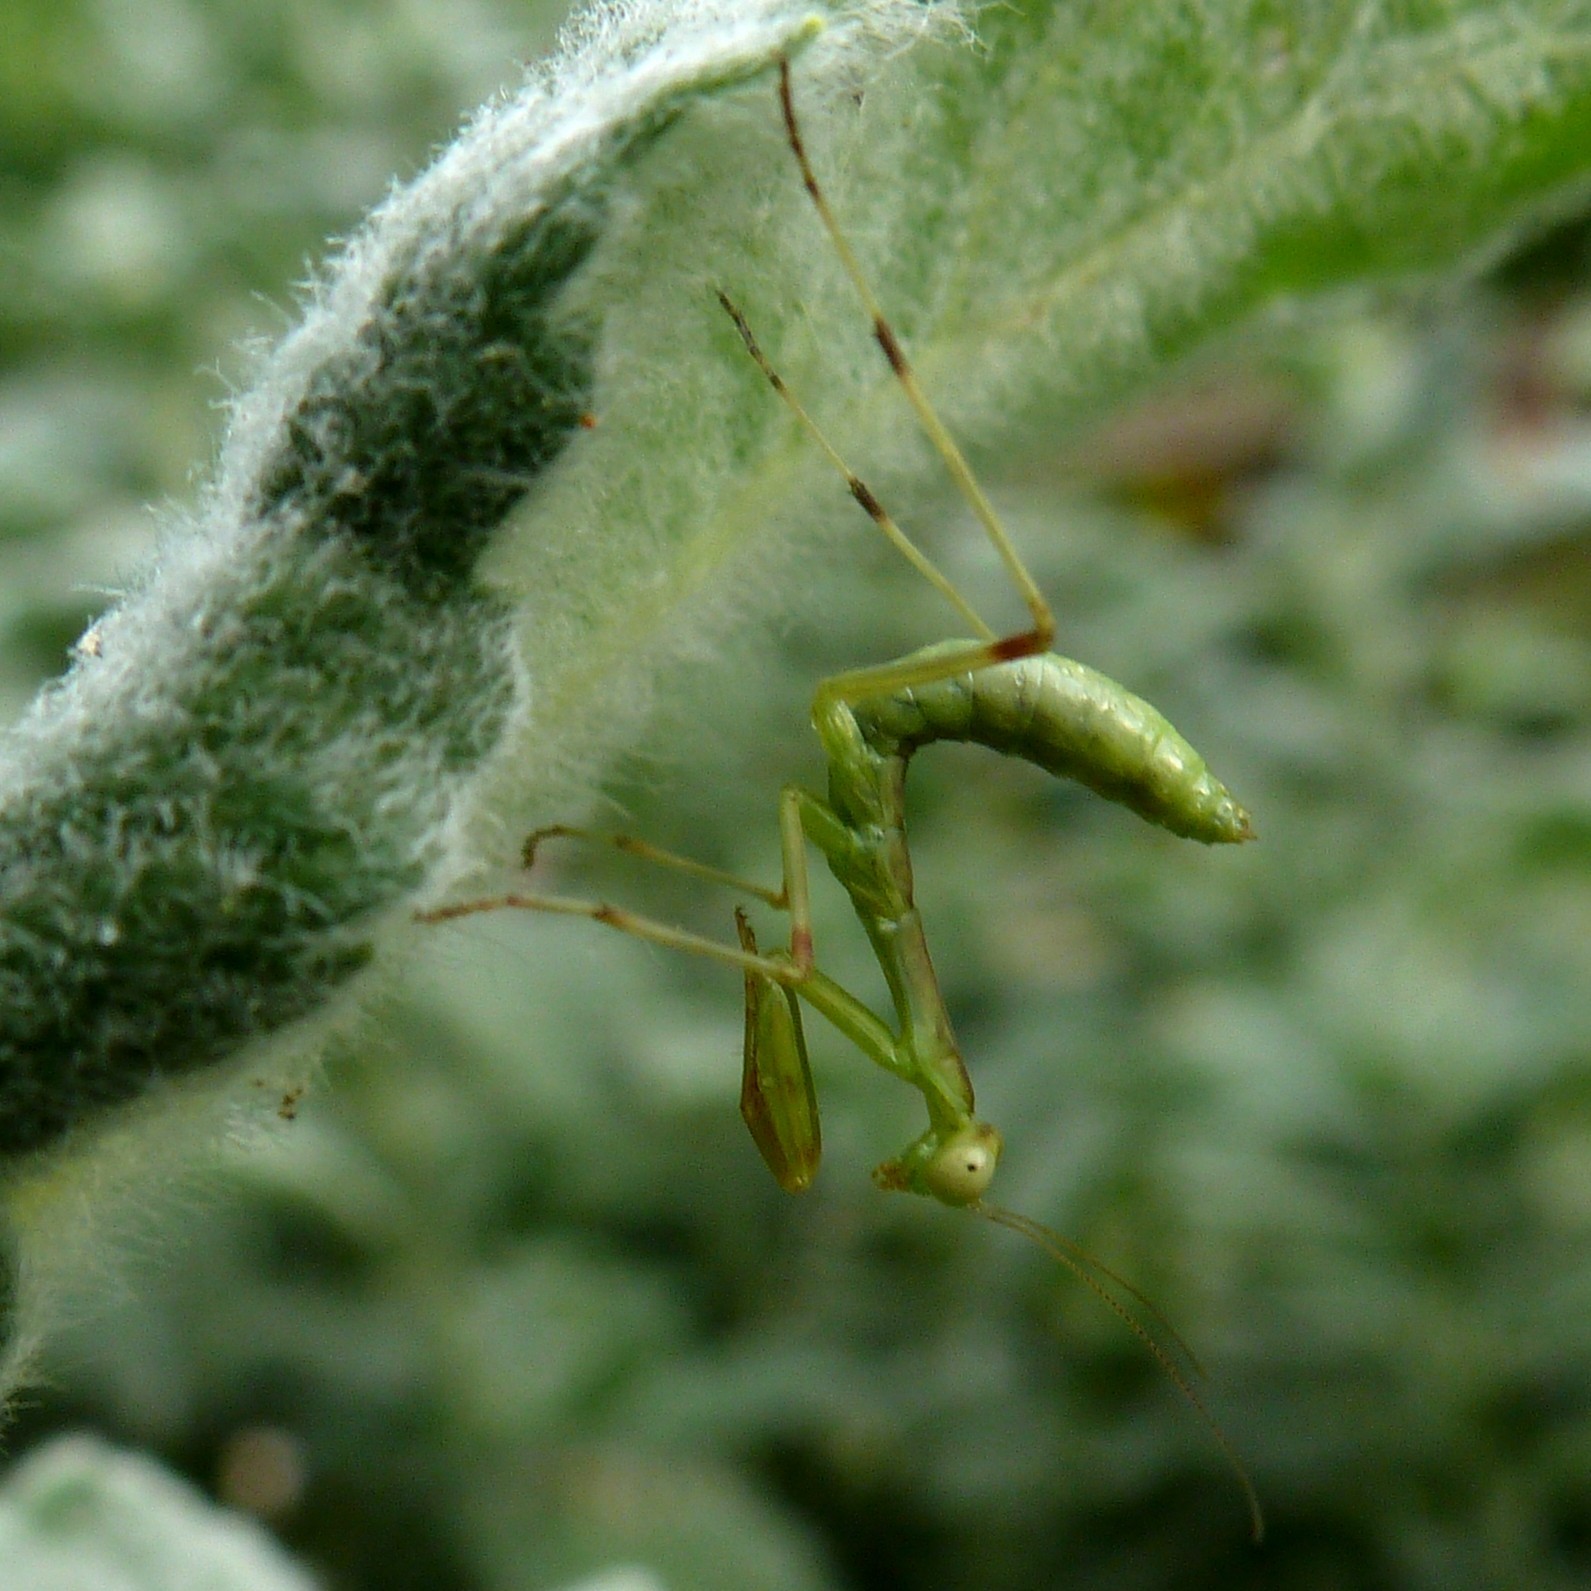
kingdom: Animalia
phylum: Arthropoda
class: Insecta
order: Mantodea
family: Mantidae
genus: Hierodula
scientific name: Hierodula transcaucasica
